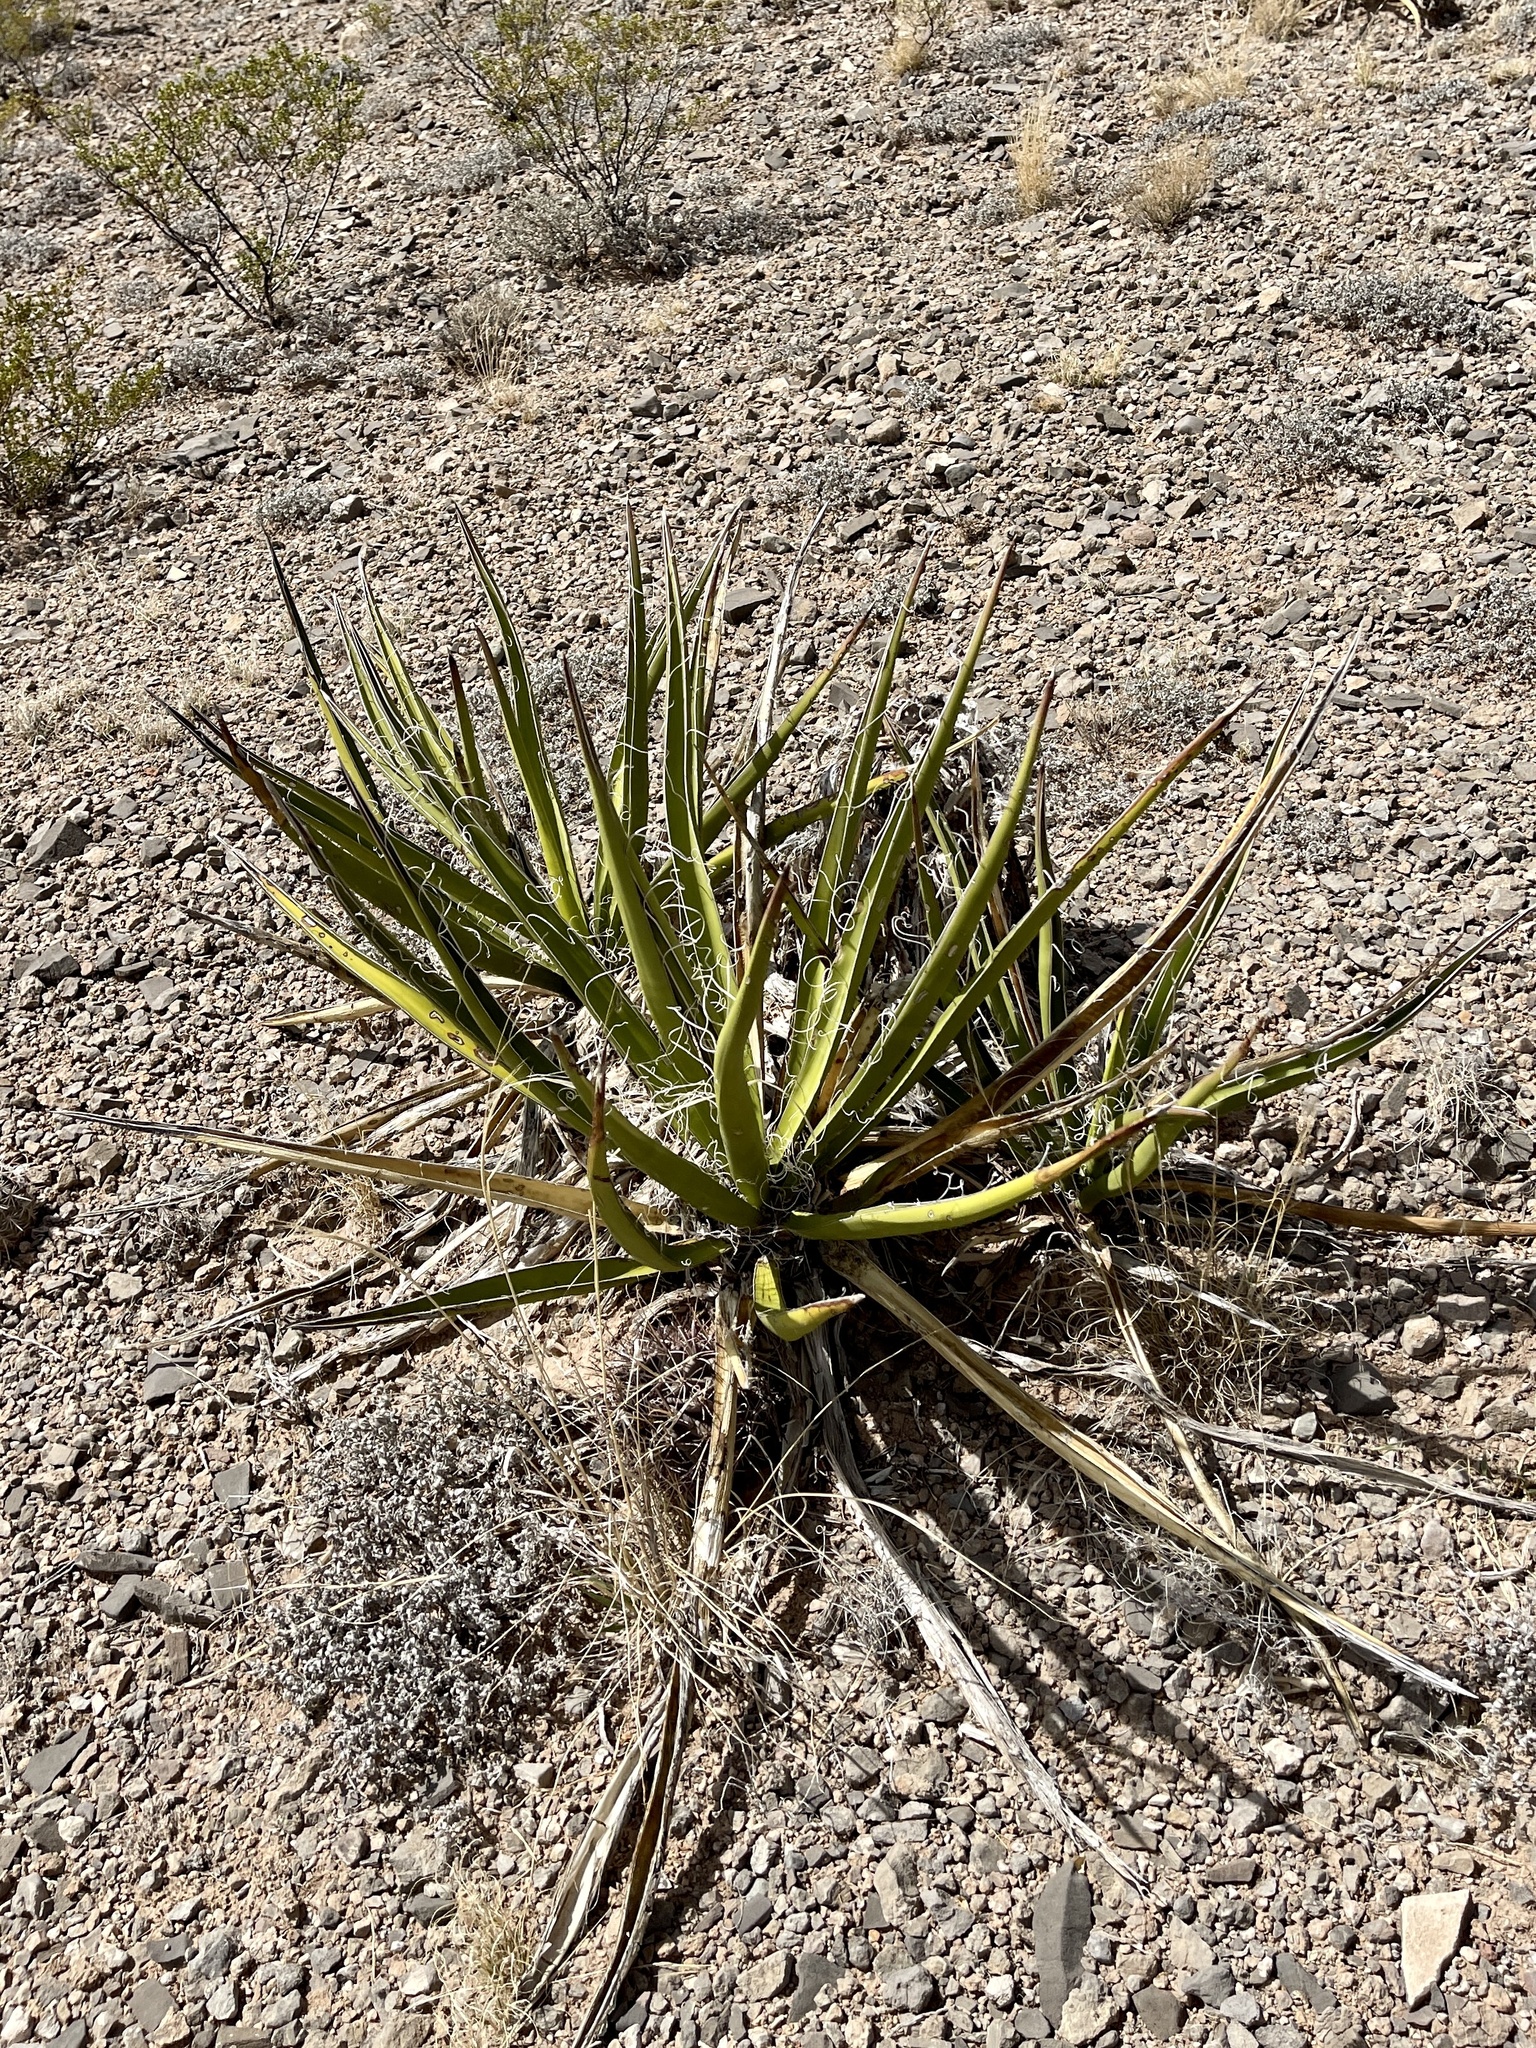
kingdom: Plantae
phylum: Tracheophyta
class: Liliopsida
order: Asparagales
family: Asparagaceae
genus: Yucca
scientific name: Yucca baccata
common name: Banana yucca
